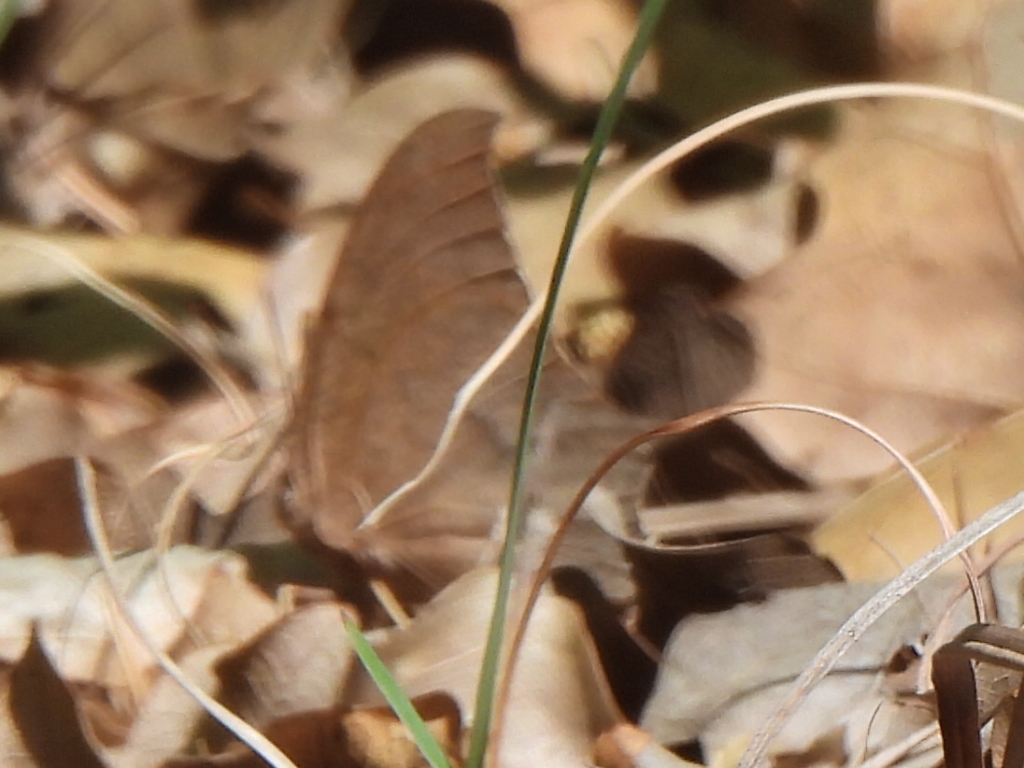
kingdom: Animalia
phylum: Arthropoda
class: Insecta
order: Lepidoptera
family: Nymphalidae
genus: Anaea
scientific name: Anaea andria
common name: Goatweed leafwing
